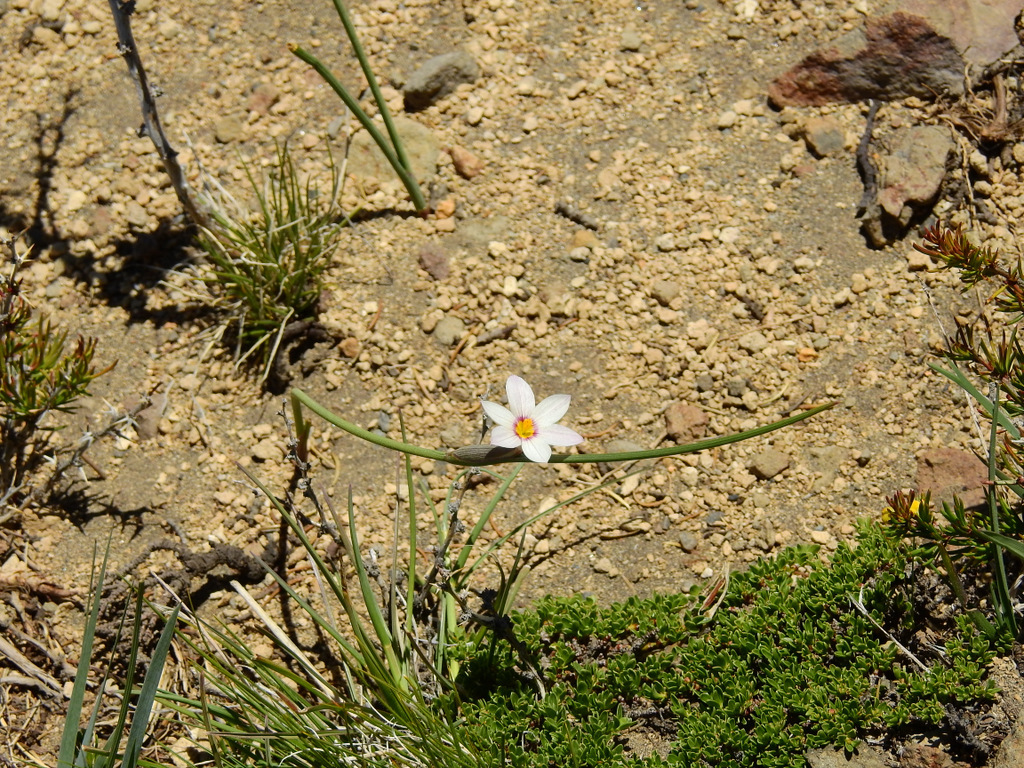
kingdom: Plantae
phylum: Tracheophyta
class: Liliopsida
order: Asparagales
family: Iridaceae
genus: Olsynium
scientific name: Olsynium junceum
